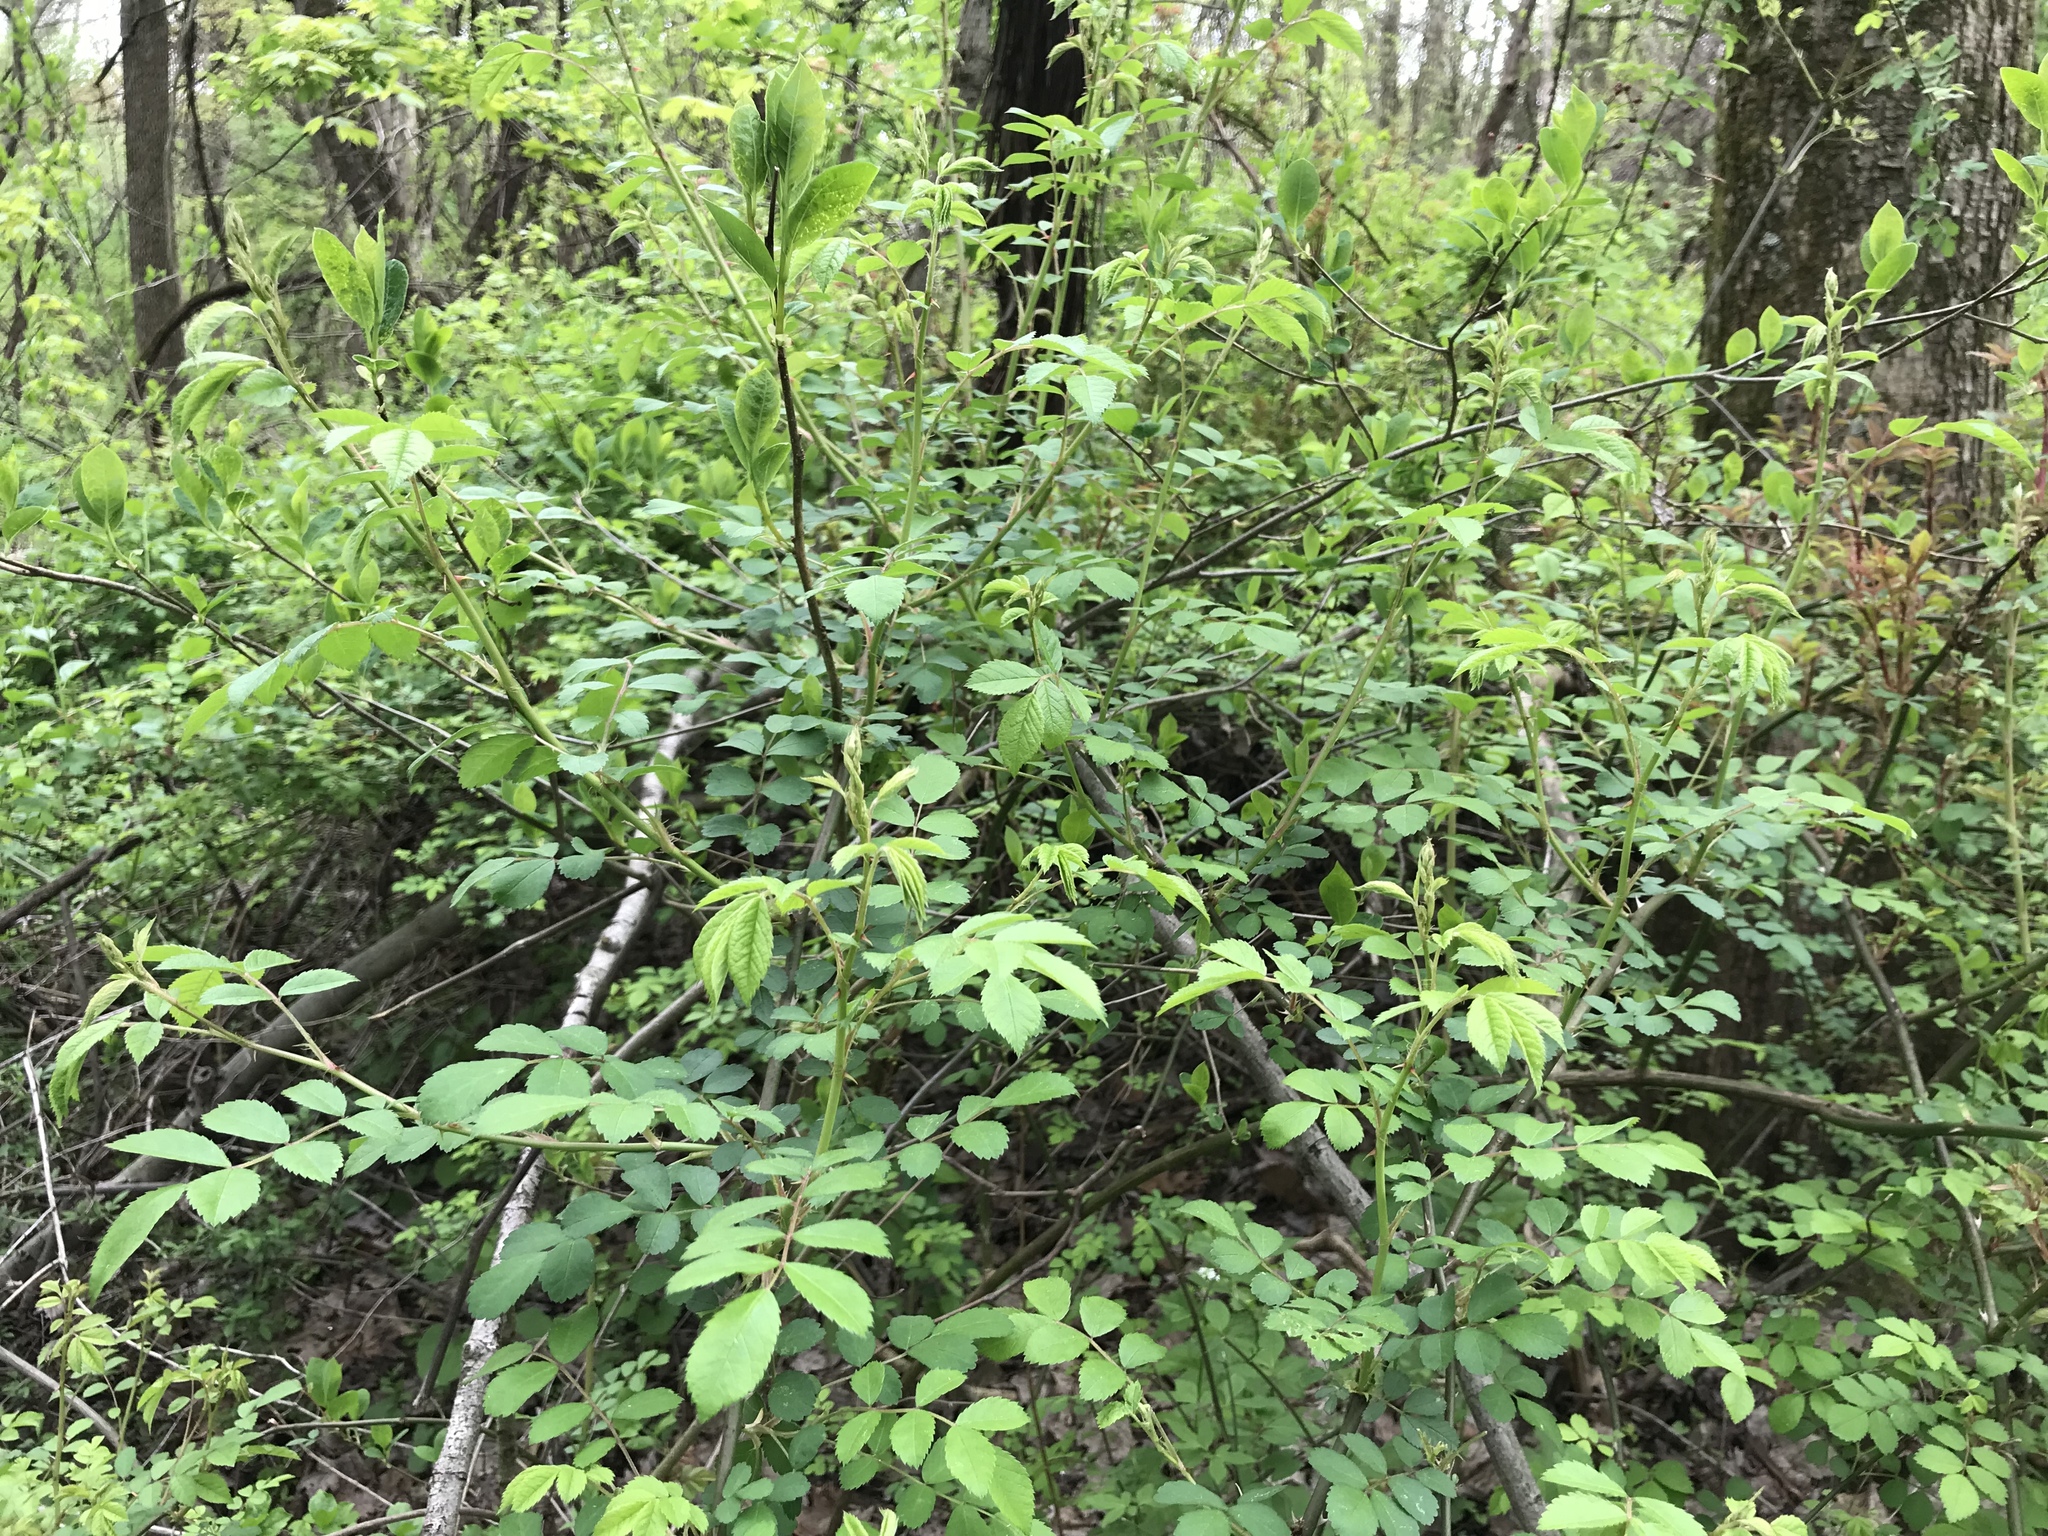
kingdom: Plantae
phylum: Tracheophyta
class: Magnoliopsida
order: Rosales
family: Rosaceae
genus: Rosa
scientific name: Rosa multiflora
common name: Multiflora rose
